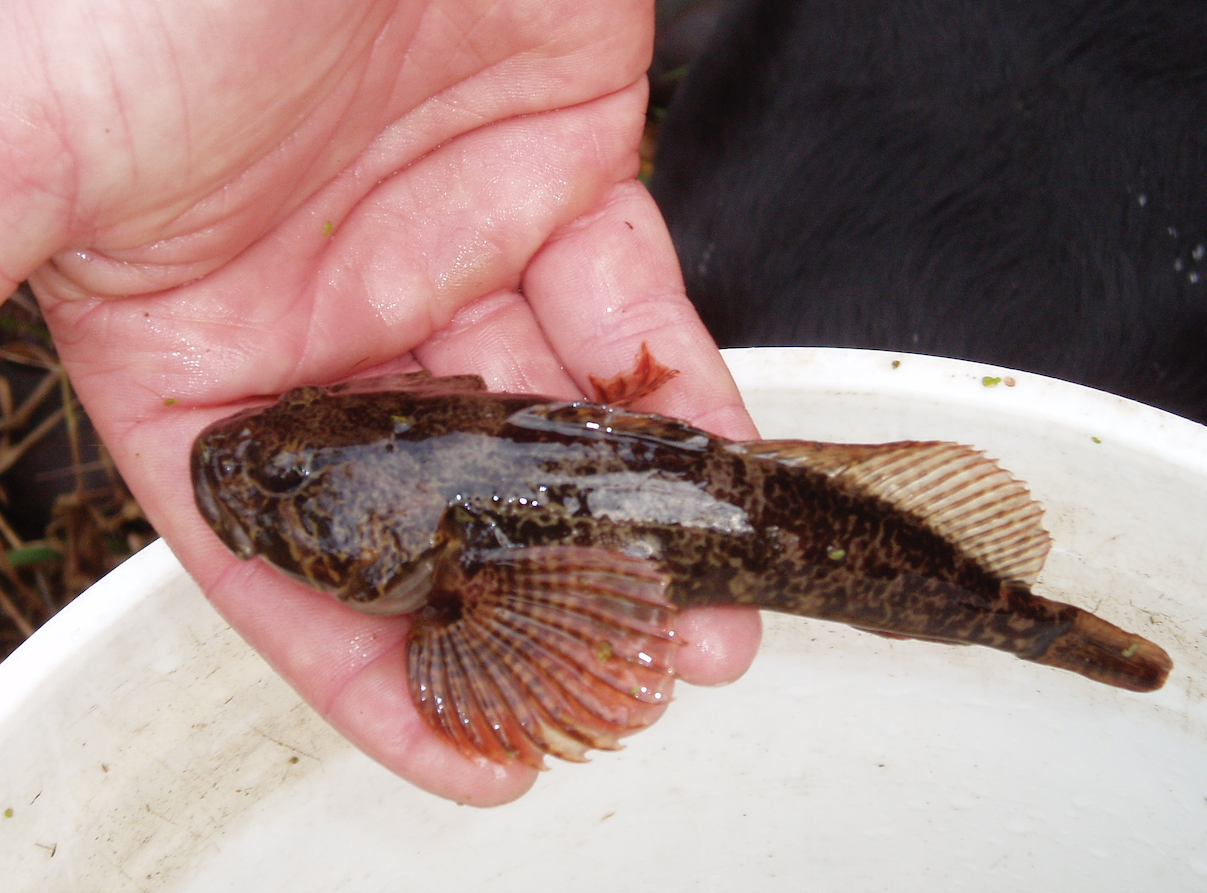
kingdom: Animalia
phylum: Chordata
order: Scorpaeniformes
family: Cottidae
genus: Cottus
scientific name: Cottus asper
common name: Prickly sculpin
